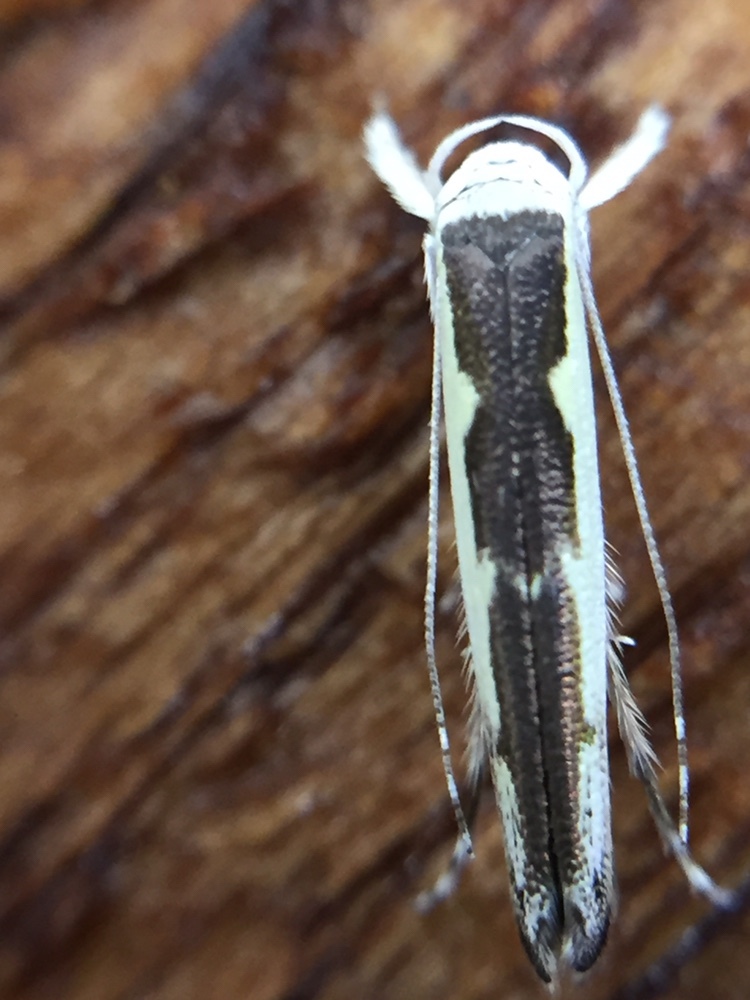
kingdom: Animalia
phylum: Arthropoda
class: Insecta
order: Lepidoptera
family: Roeslerstammiidae
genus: Vanicela
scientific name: Vanicela disjunctella
